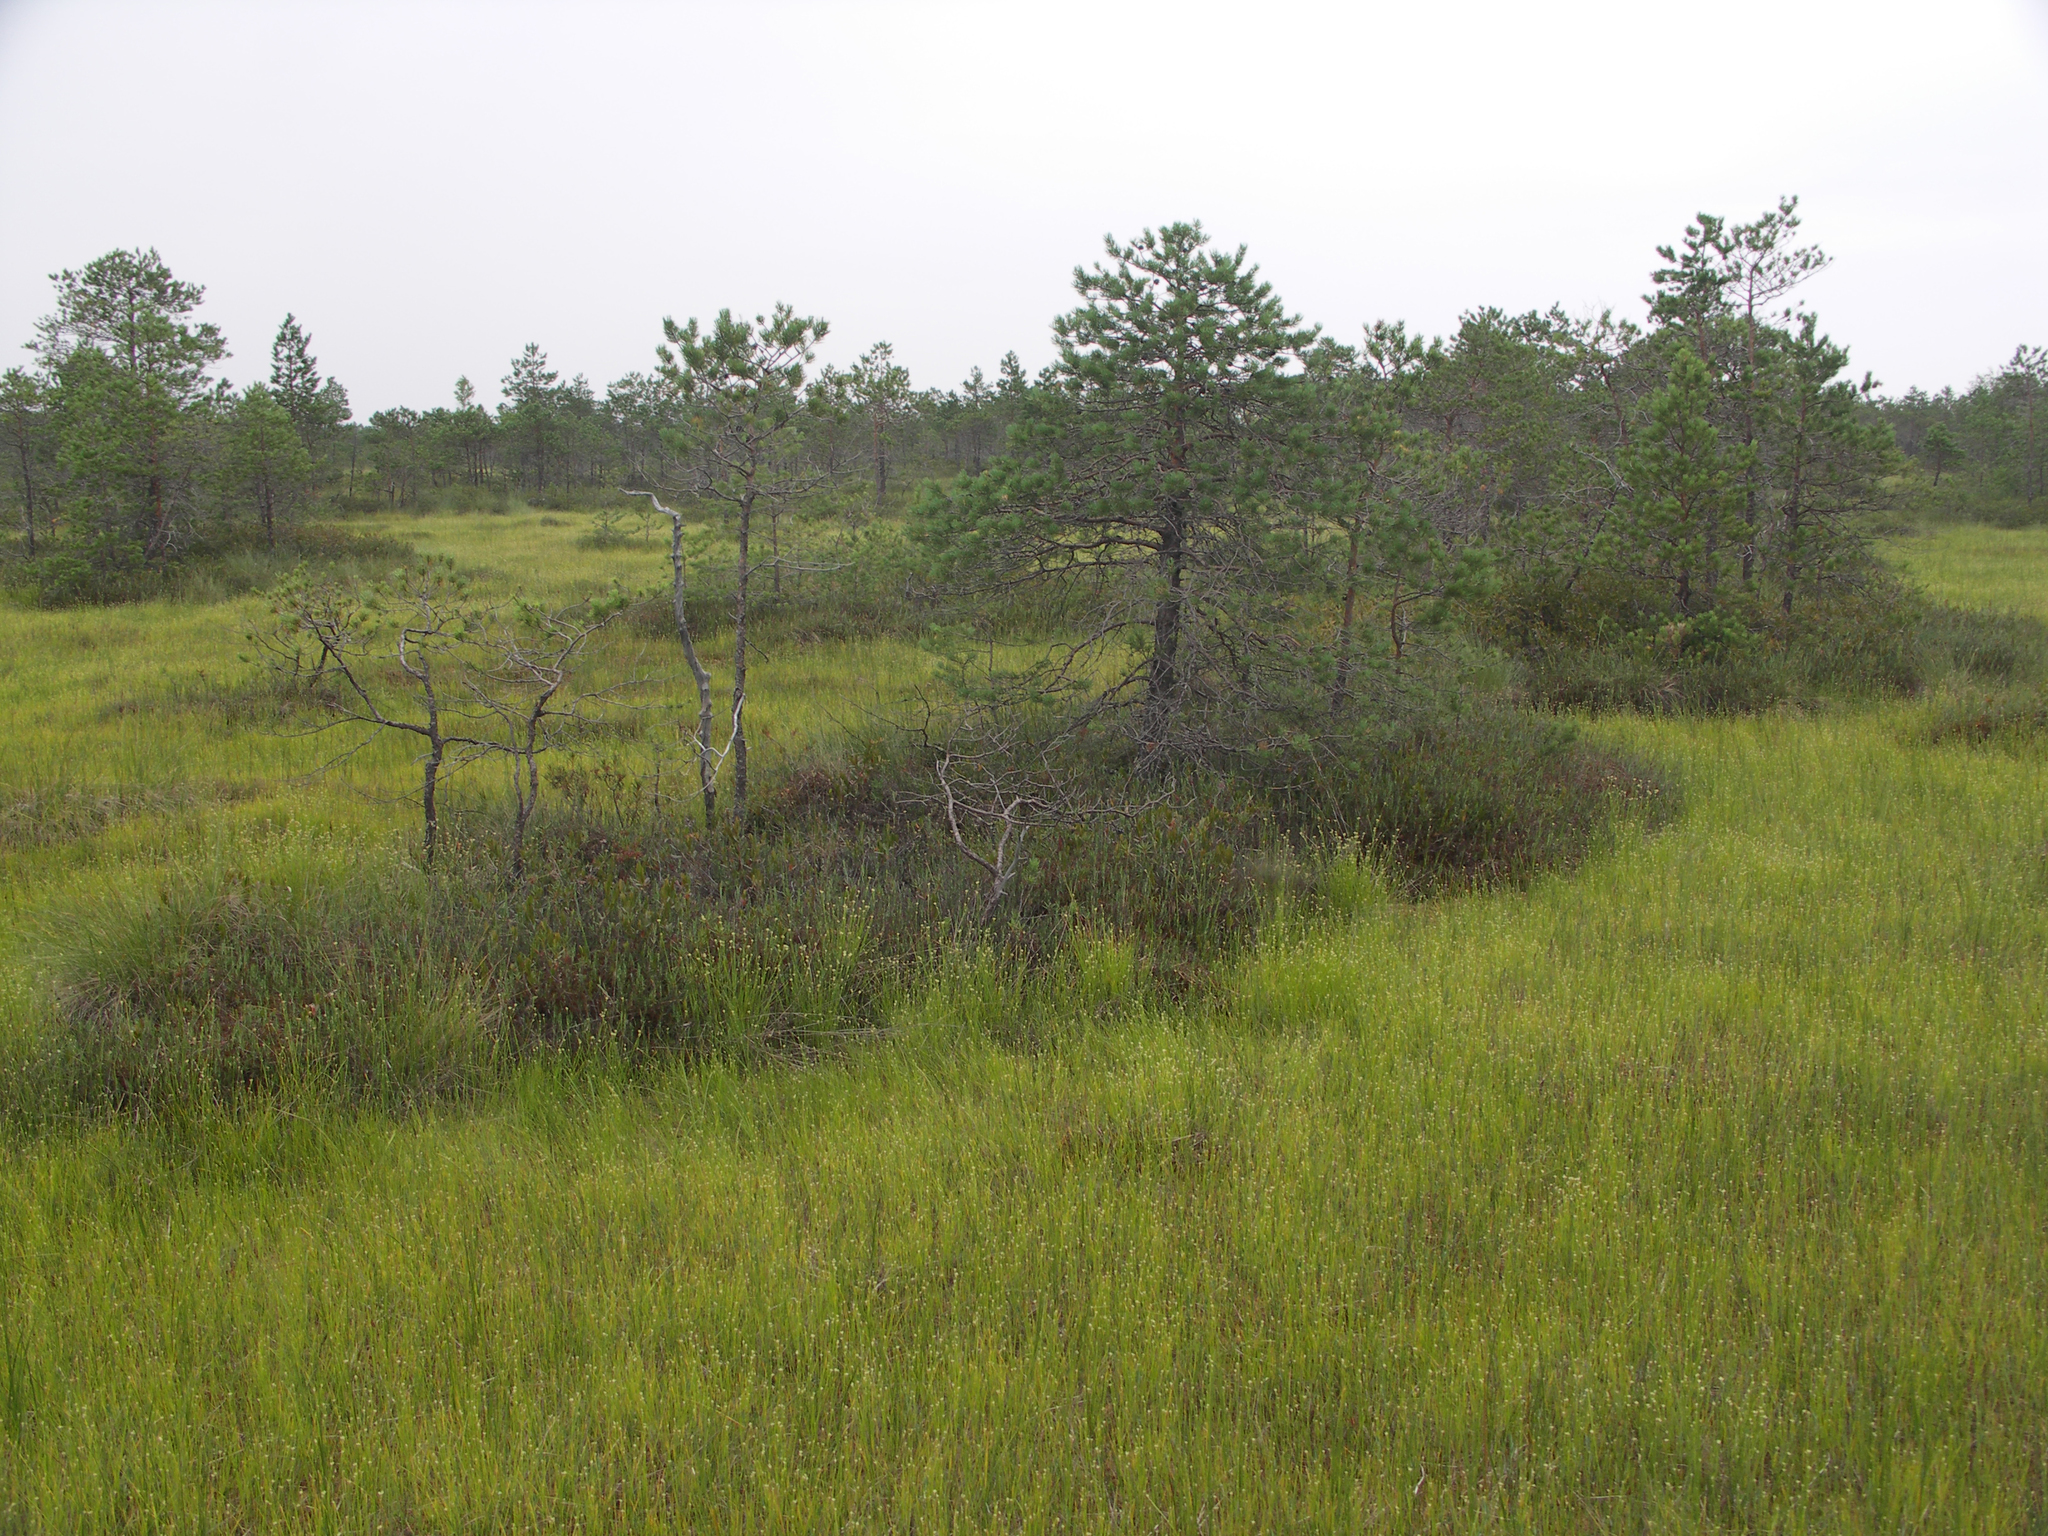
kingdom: Plantae
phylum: Tracheophyta
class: Pinopsida
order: Pinales
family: Pinaceae
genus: Pinus
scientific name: Pinus sylvestris
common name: Scots pine
